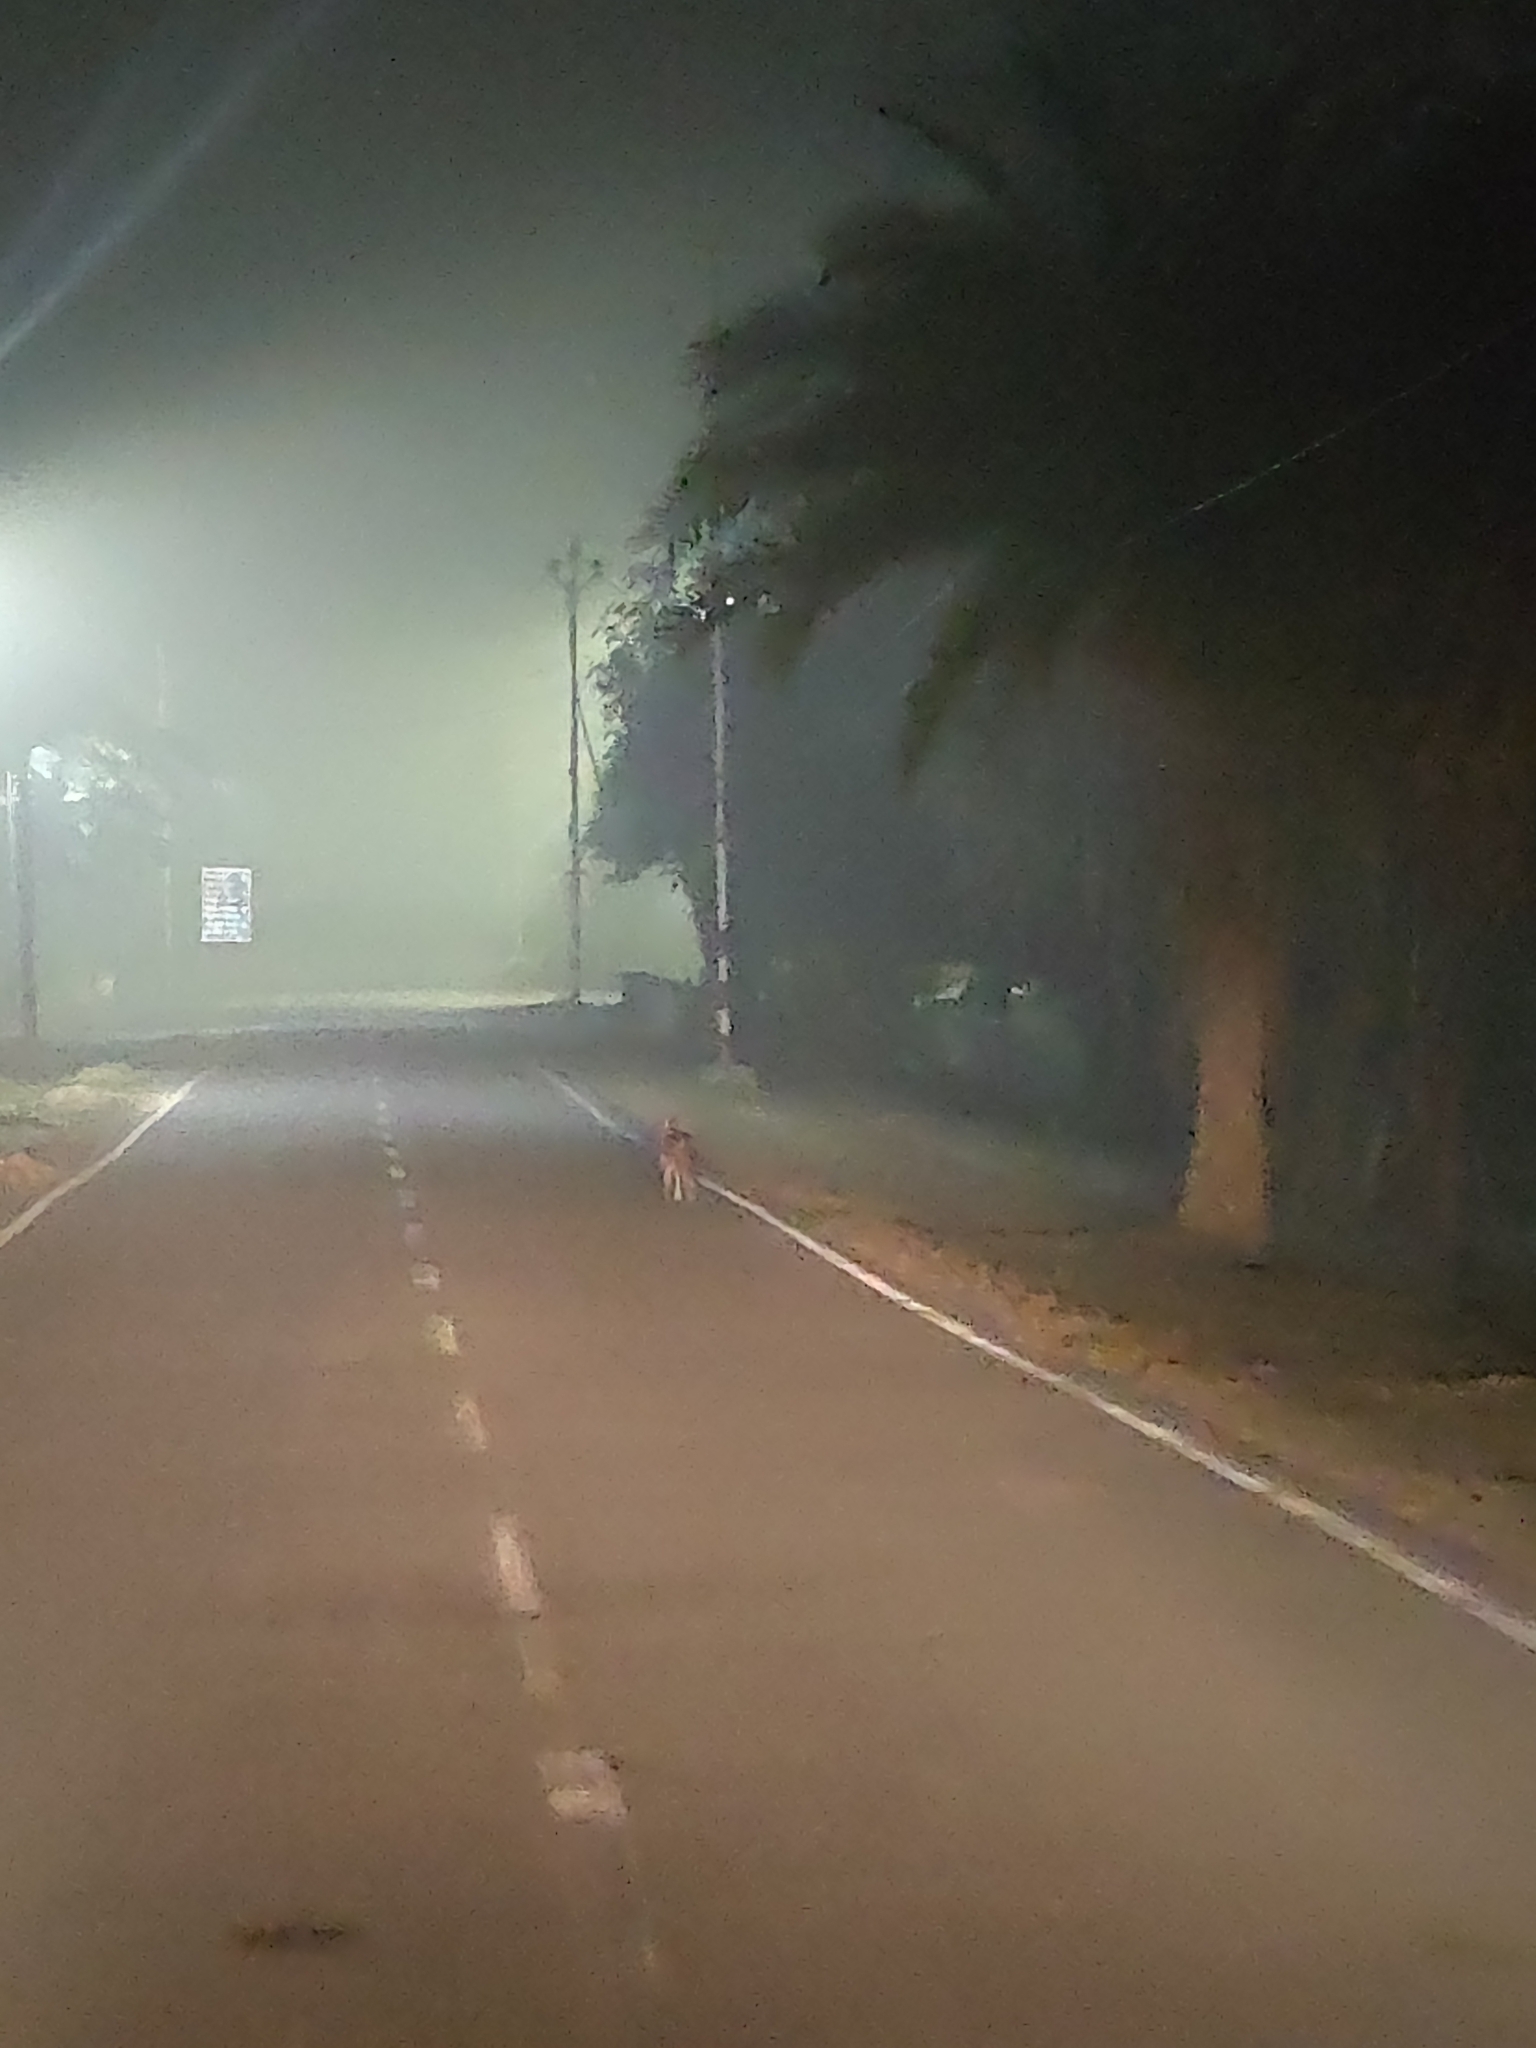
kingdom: Animalia
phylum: Chordata
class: Mammalia
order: Carnivora
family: Canidae
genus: Canis
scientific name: Canis aureus
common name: Golden jackal
